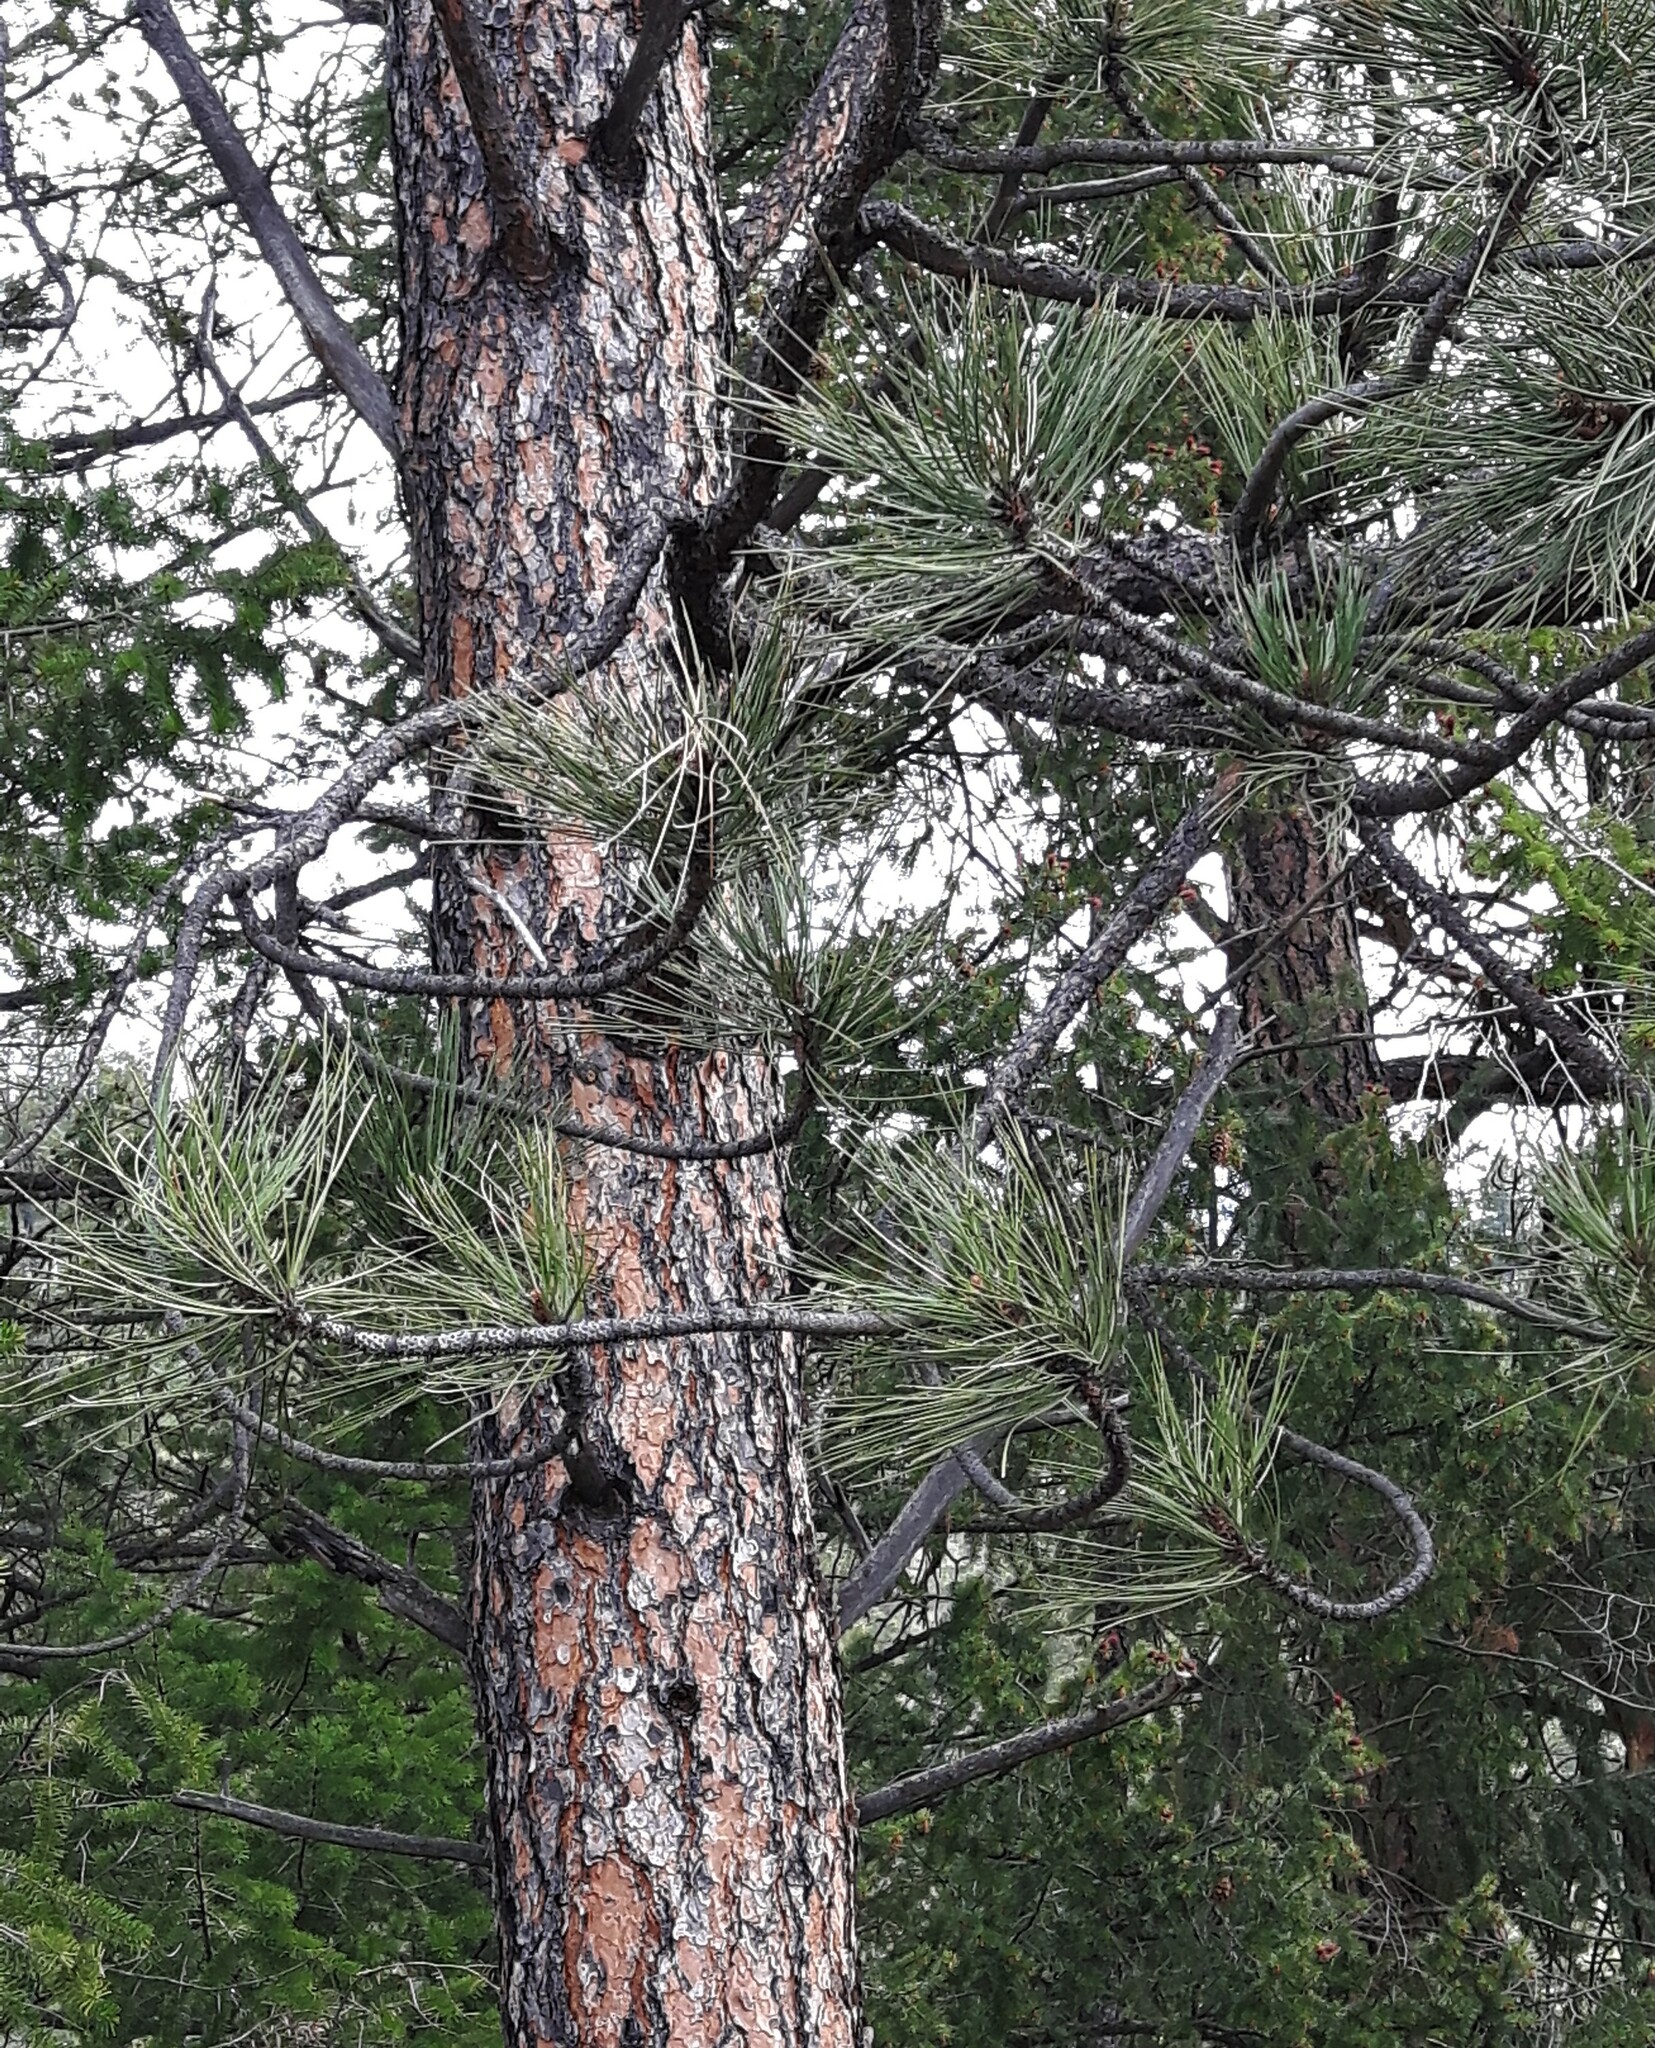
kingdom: Plantae
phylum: Tracheophyta
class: Pinopsida
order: Pinales
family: Pinaceae
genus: Pinus
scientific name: Pinus ponderosa
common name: Western yellow-pine
